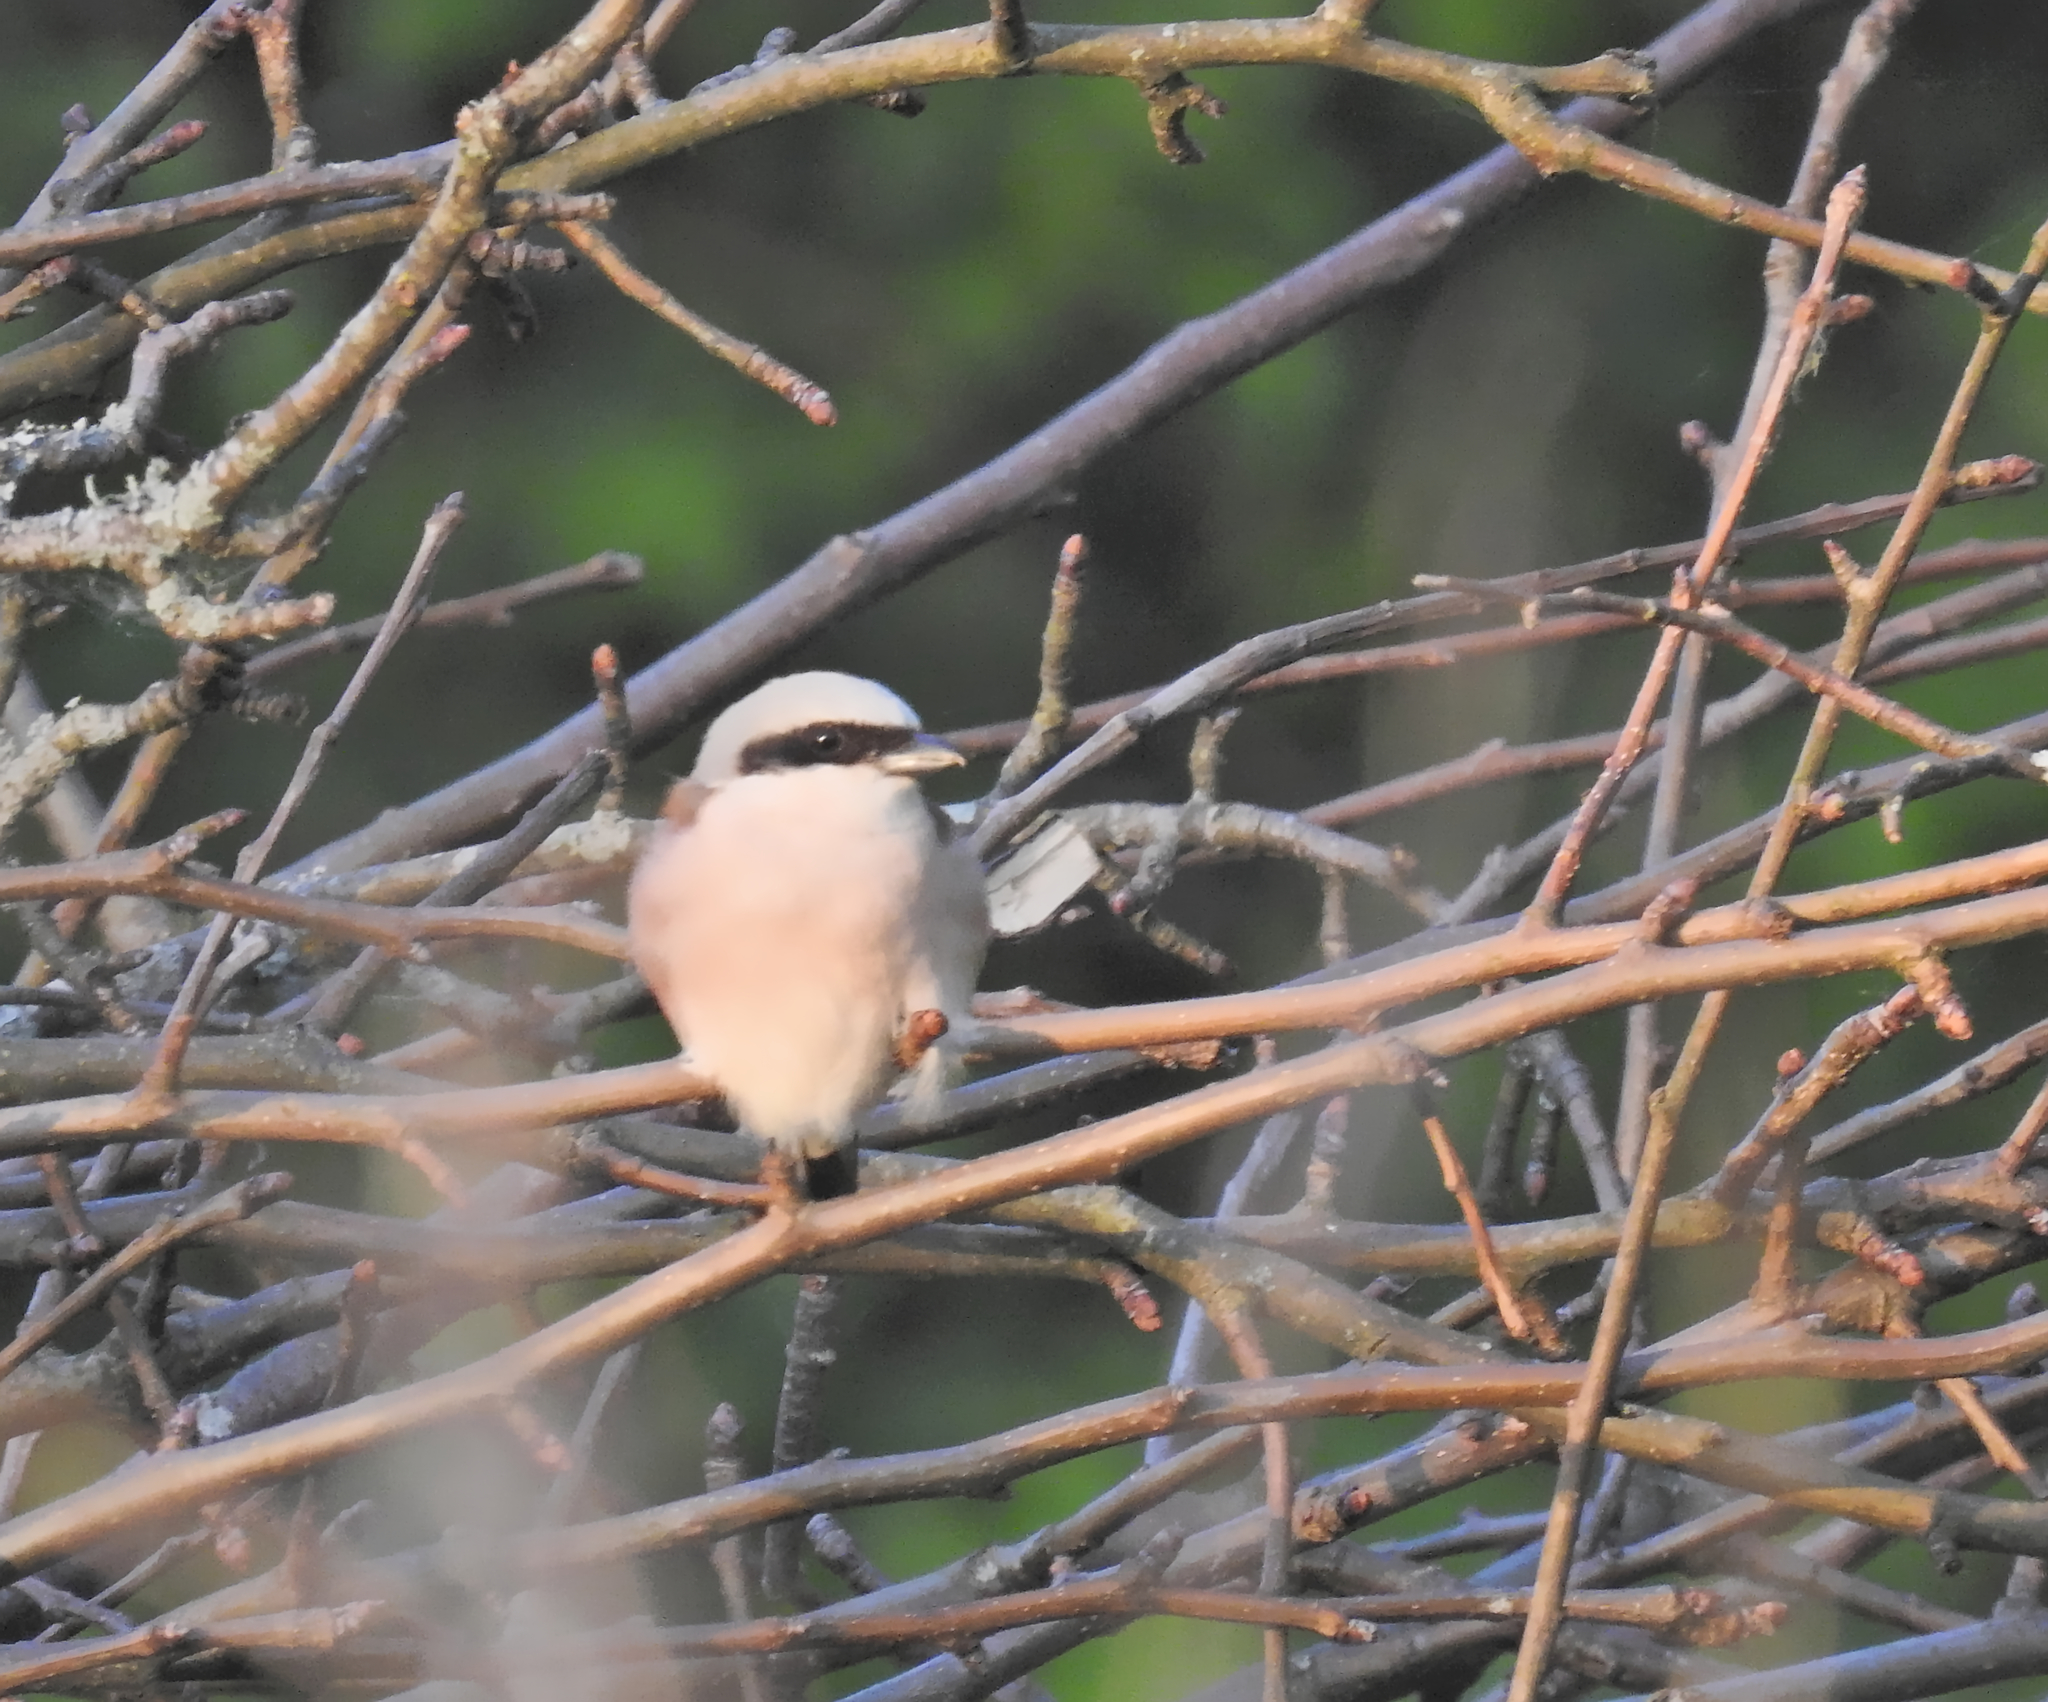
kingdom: Animalia
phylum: Chordata
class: Aves
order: Passeriformes
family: Laniidae
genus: Lanius
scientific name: Lanius collurio
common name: Red-backed shrike
